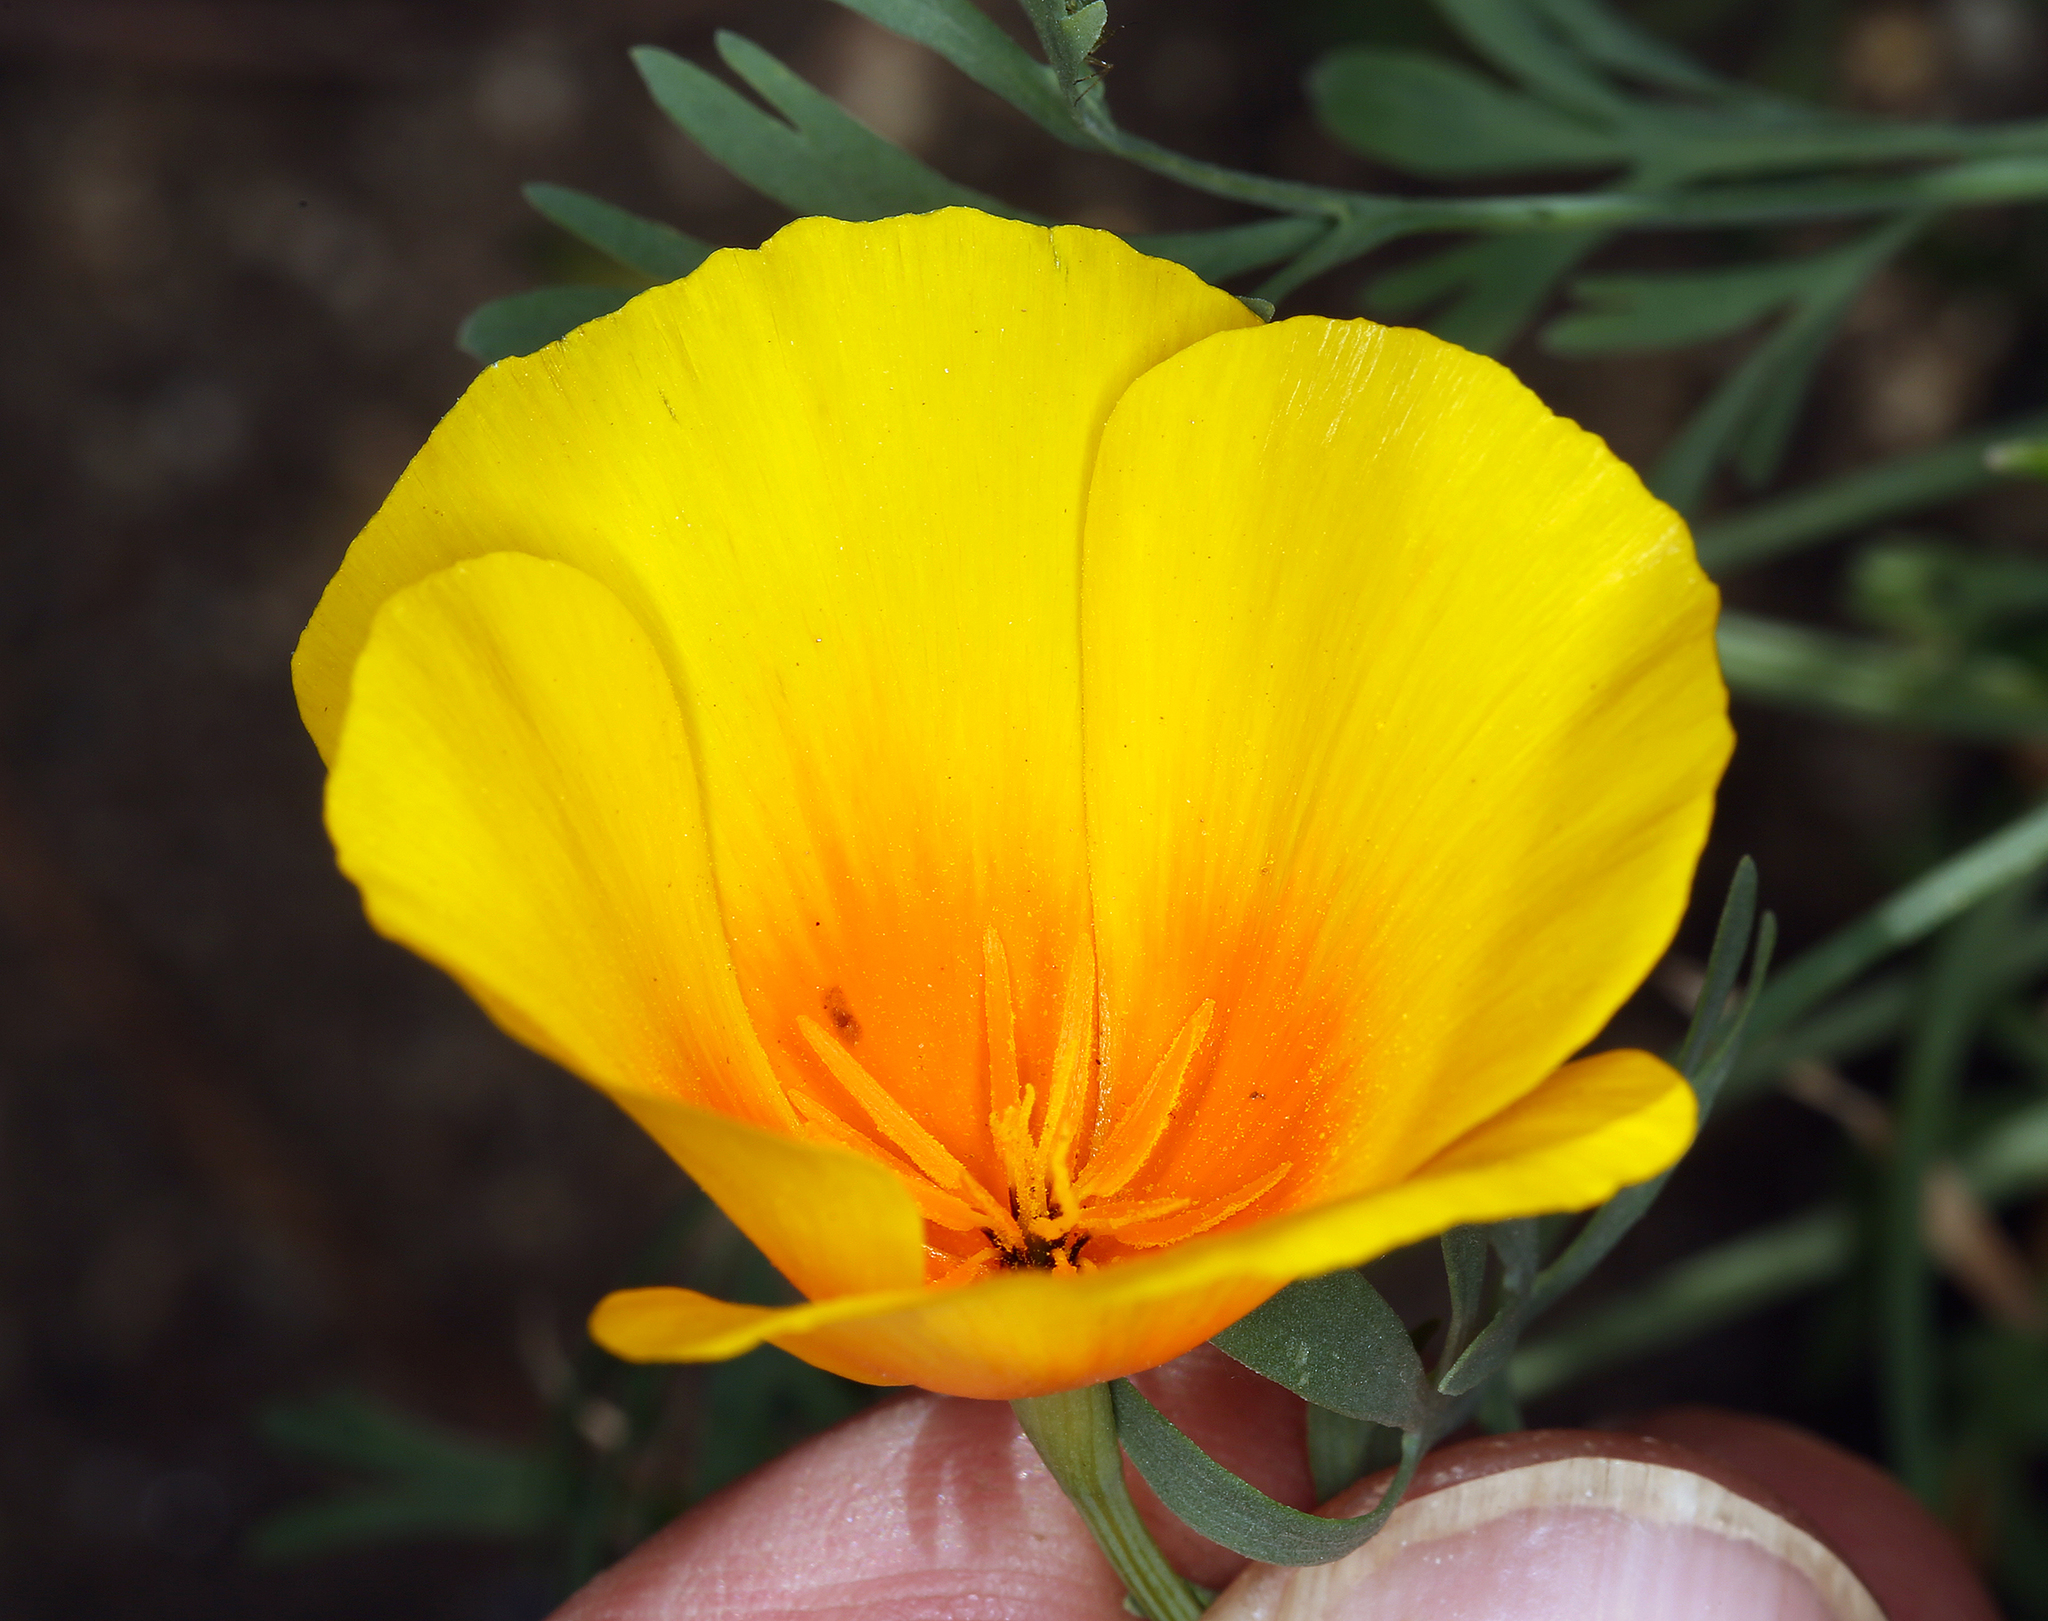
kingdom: Plantae
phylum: Tracheophyta
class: Magnoliopsida
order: Ranunculales
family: Papaveraceae
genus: Eschscholzia
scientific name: Eschscholzia lemmonii
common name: Lemmon's poppy
